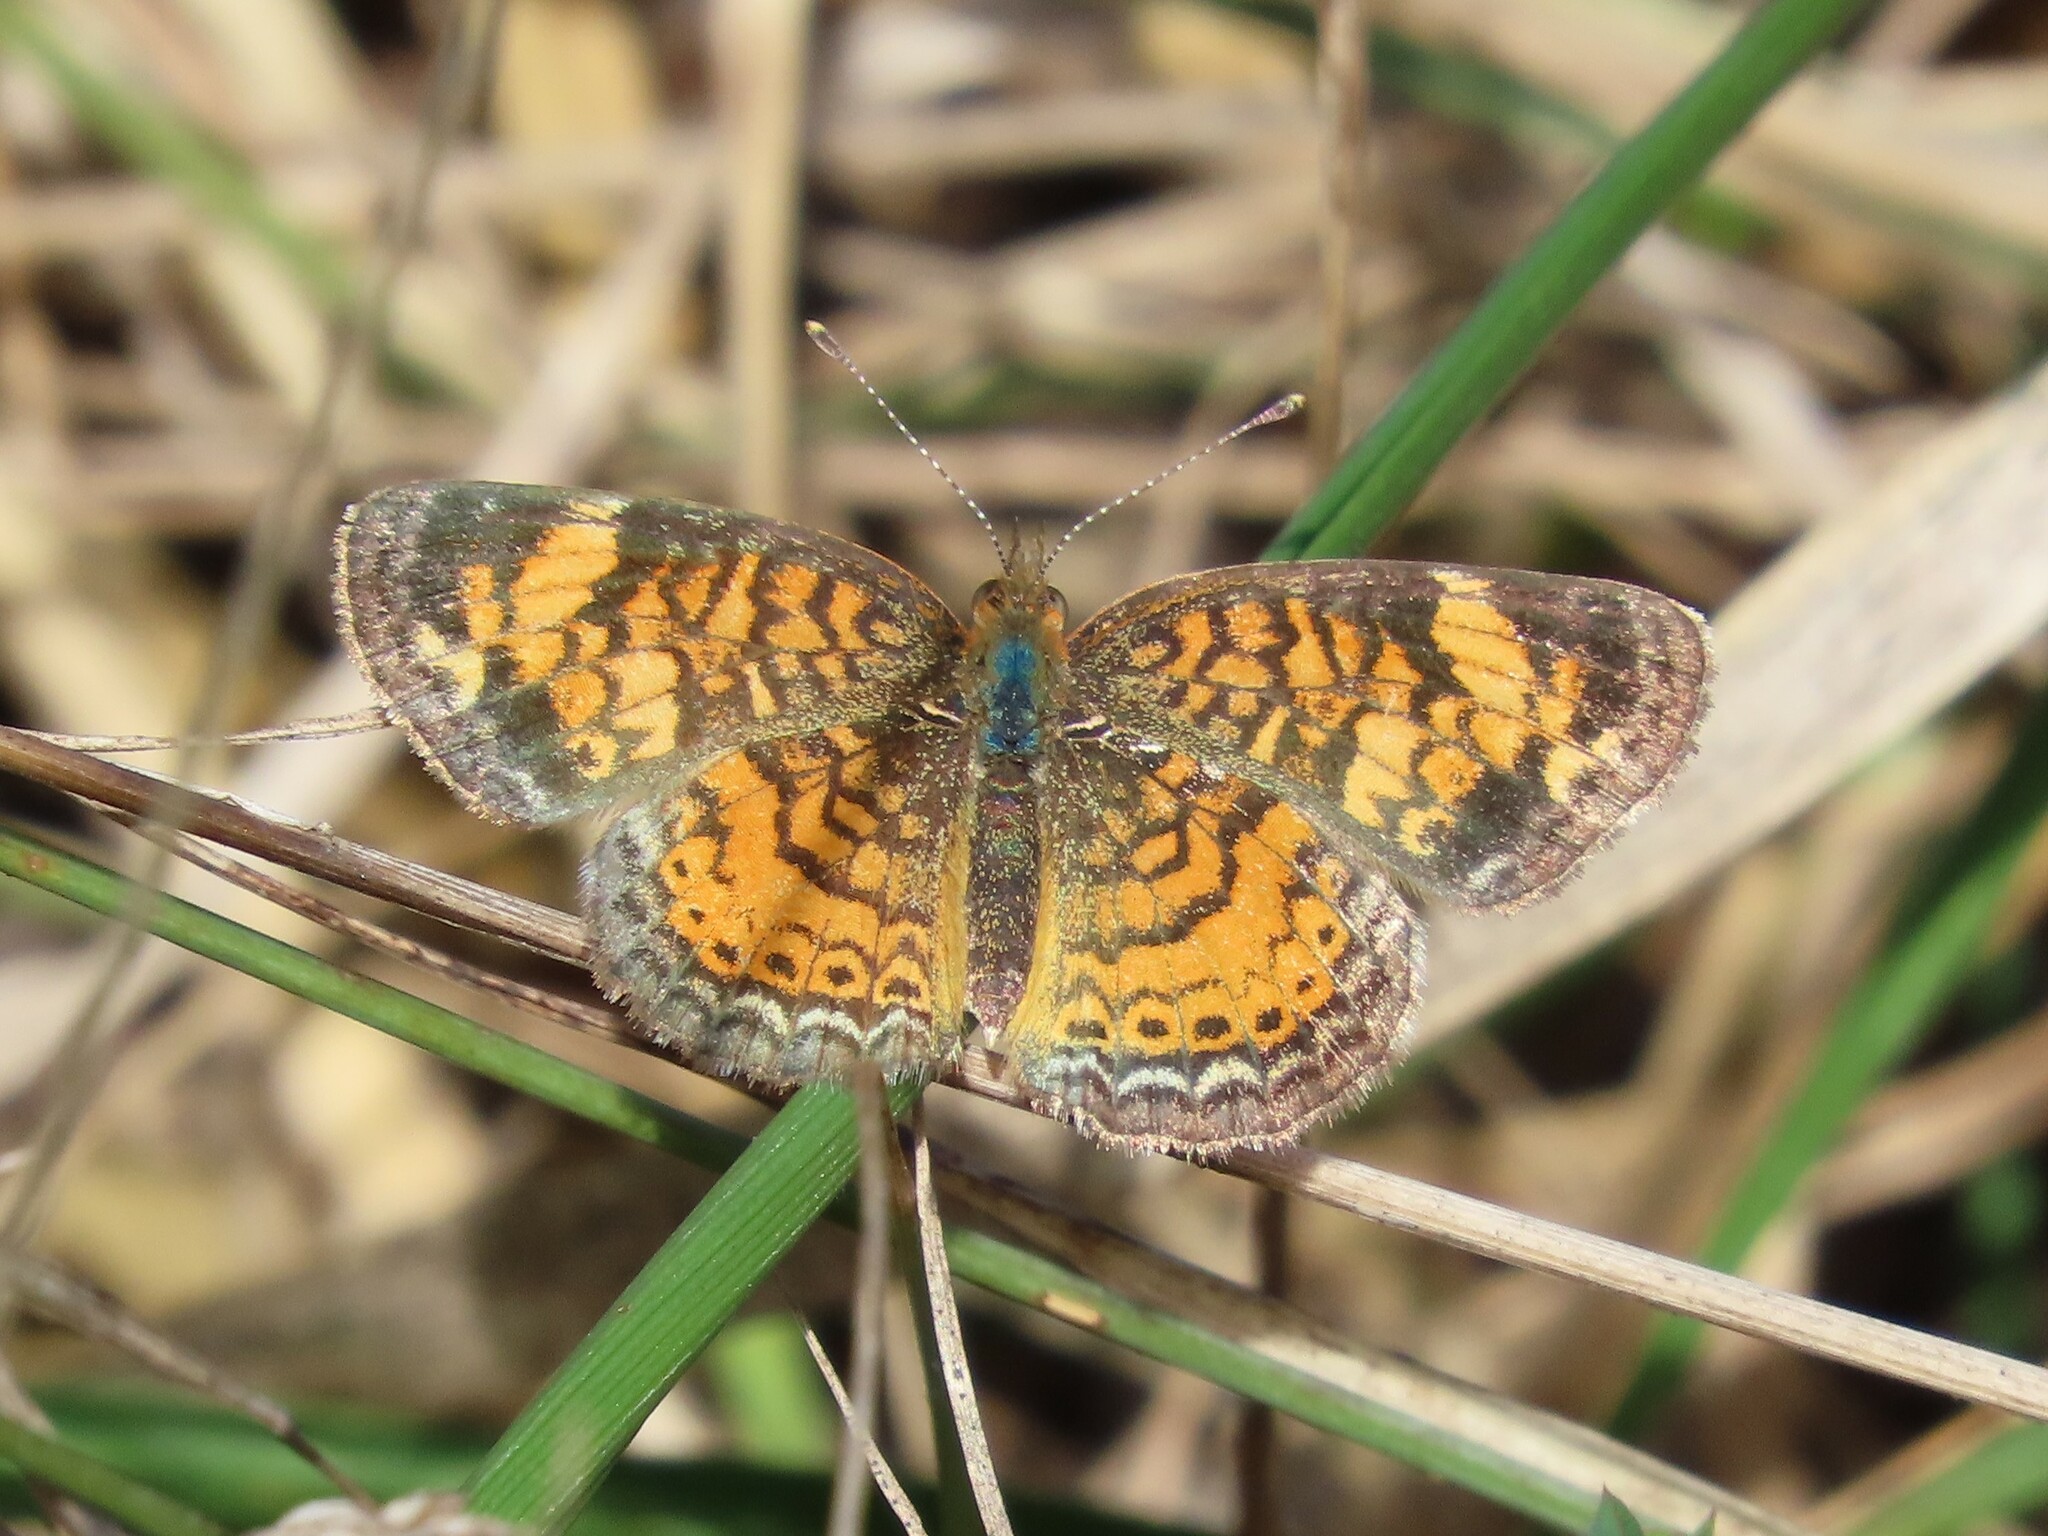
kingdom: Animalia
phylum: Arthropoda
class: Insecta
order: Lepidoptera
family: Nymphalidae
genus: Phyciodes
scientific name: Phyciodes tharos
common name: Pearl crescent
